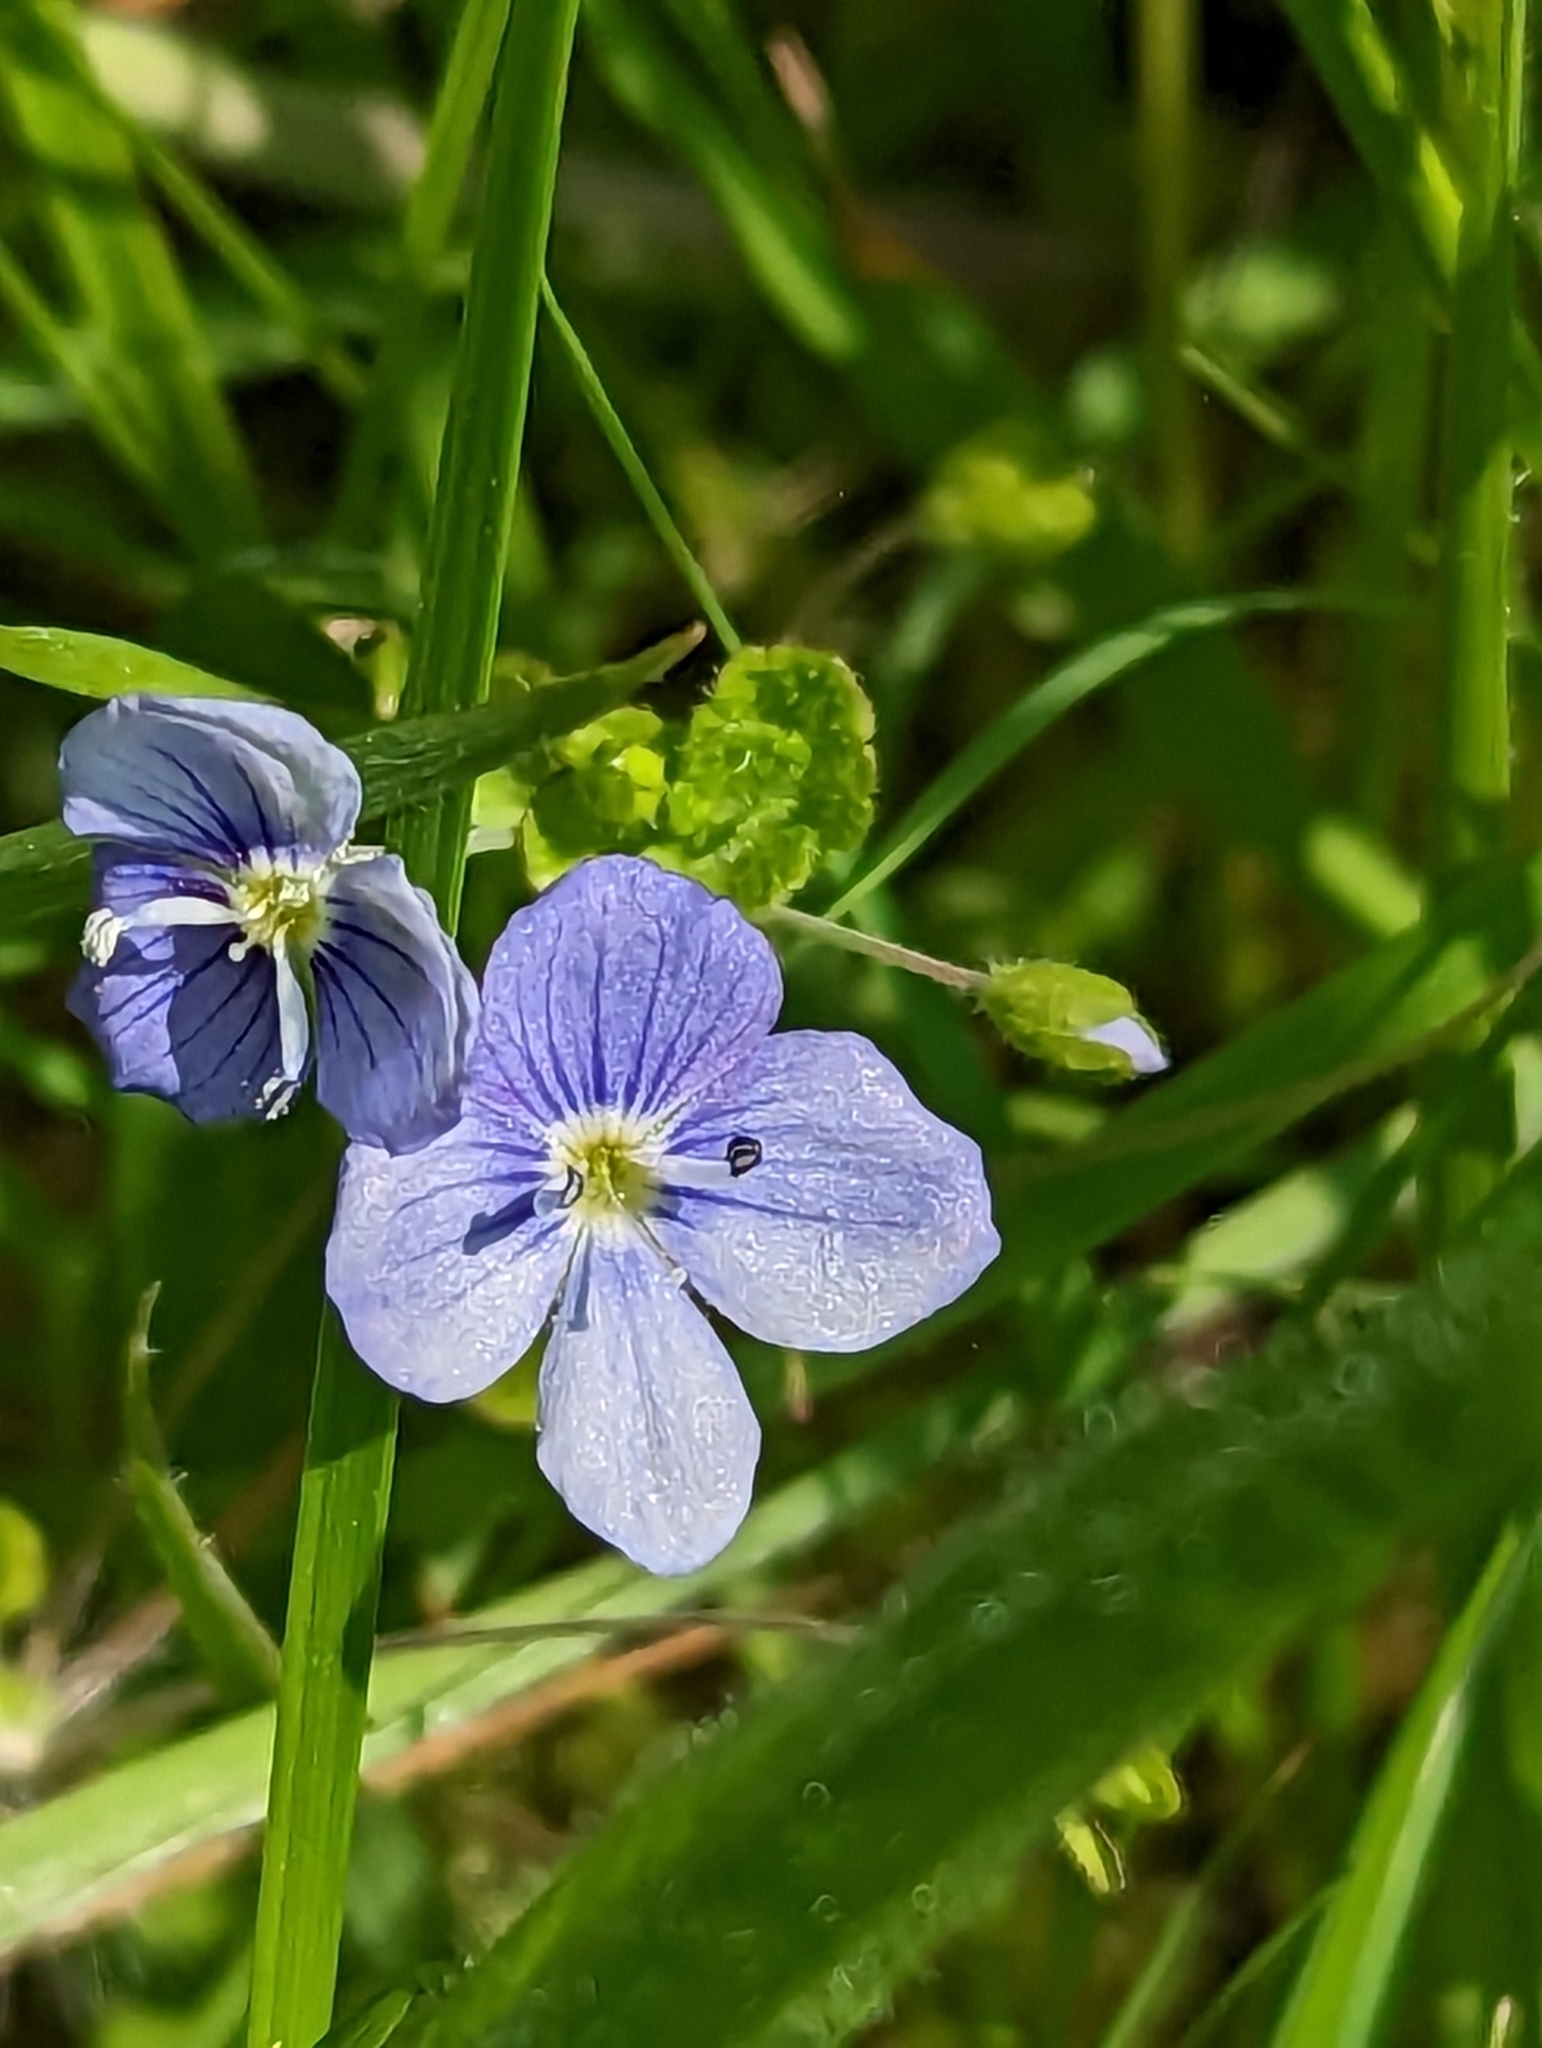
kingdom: Plantae
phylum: Tracheophyta
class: Magnoliopsida
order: Lamiales
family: Plantaginaceae
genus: Veronica
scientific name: Veronica filiformis
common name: Slender speedwell
